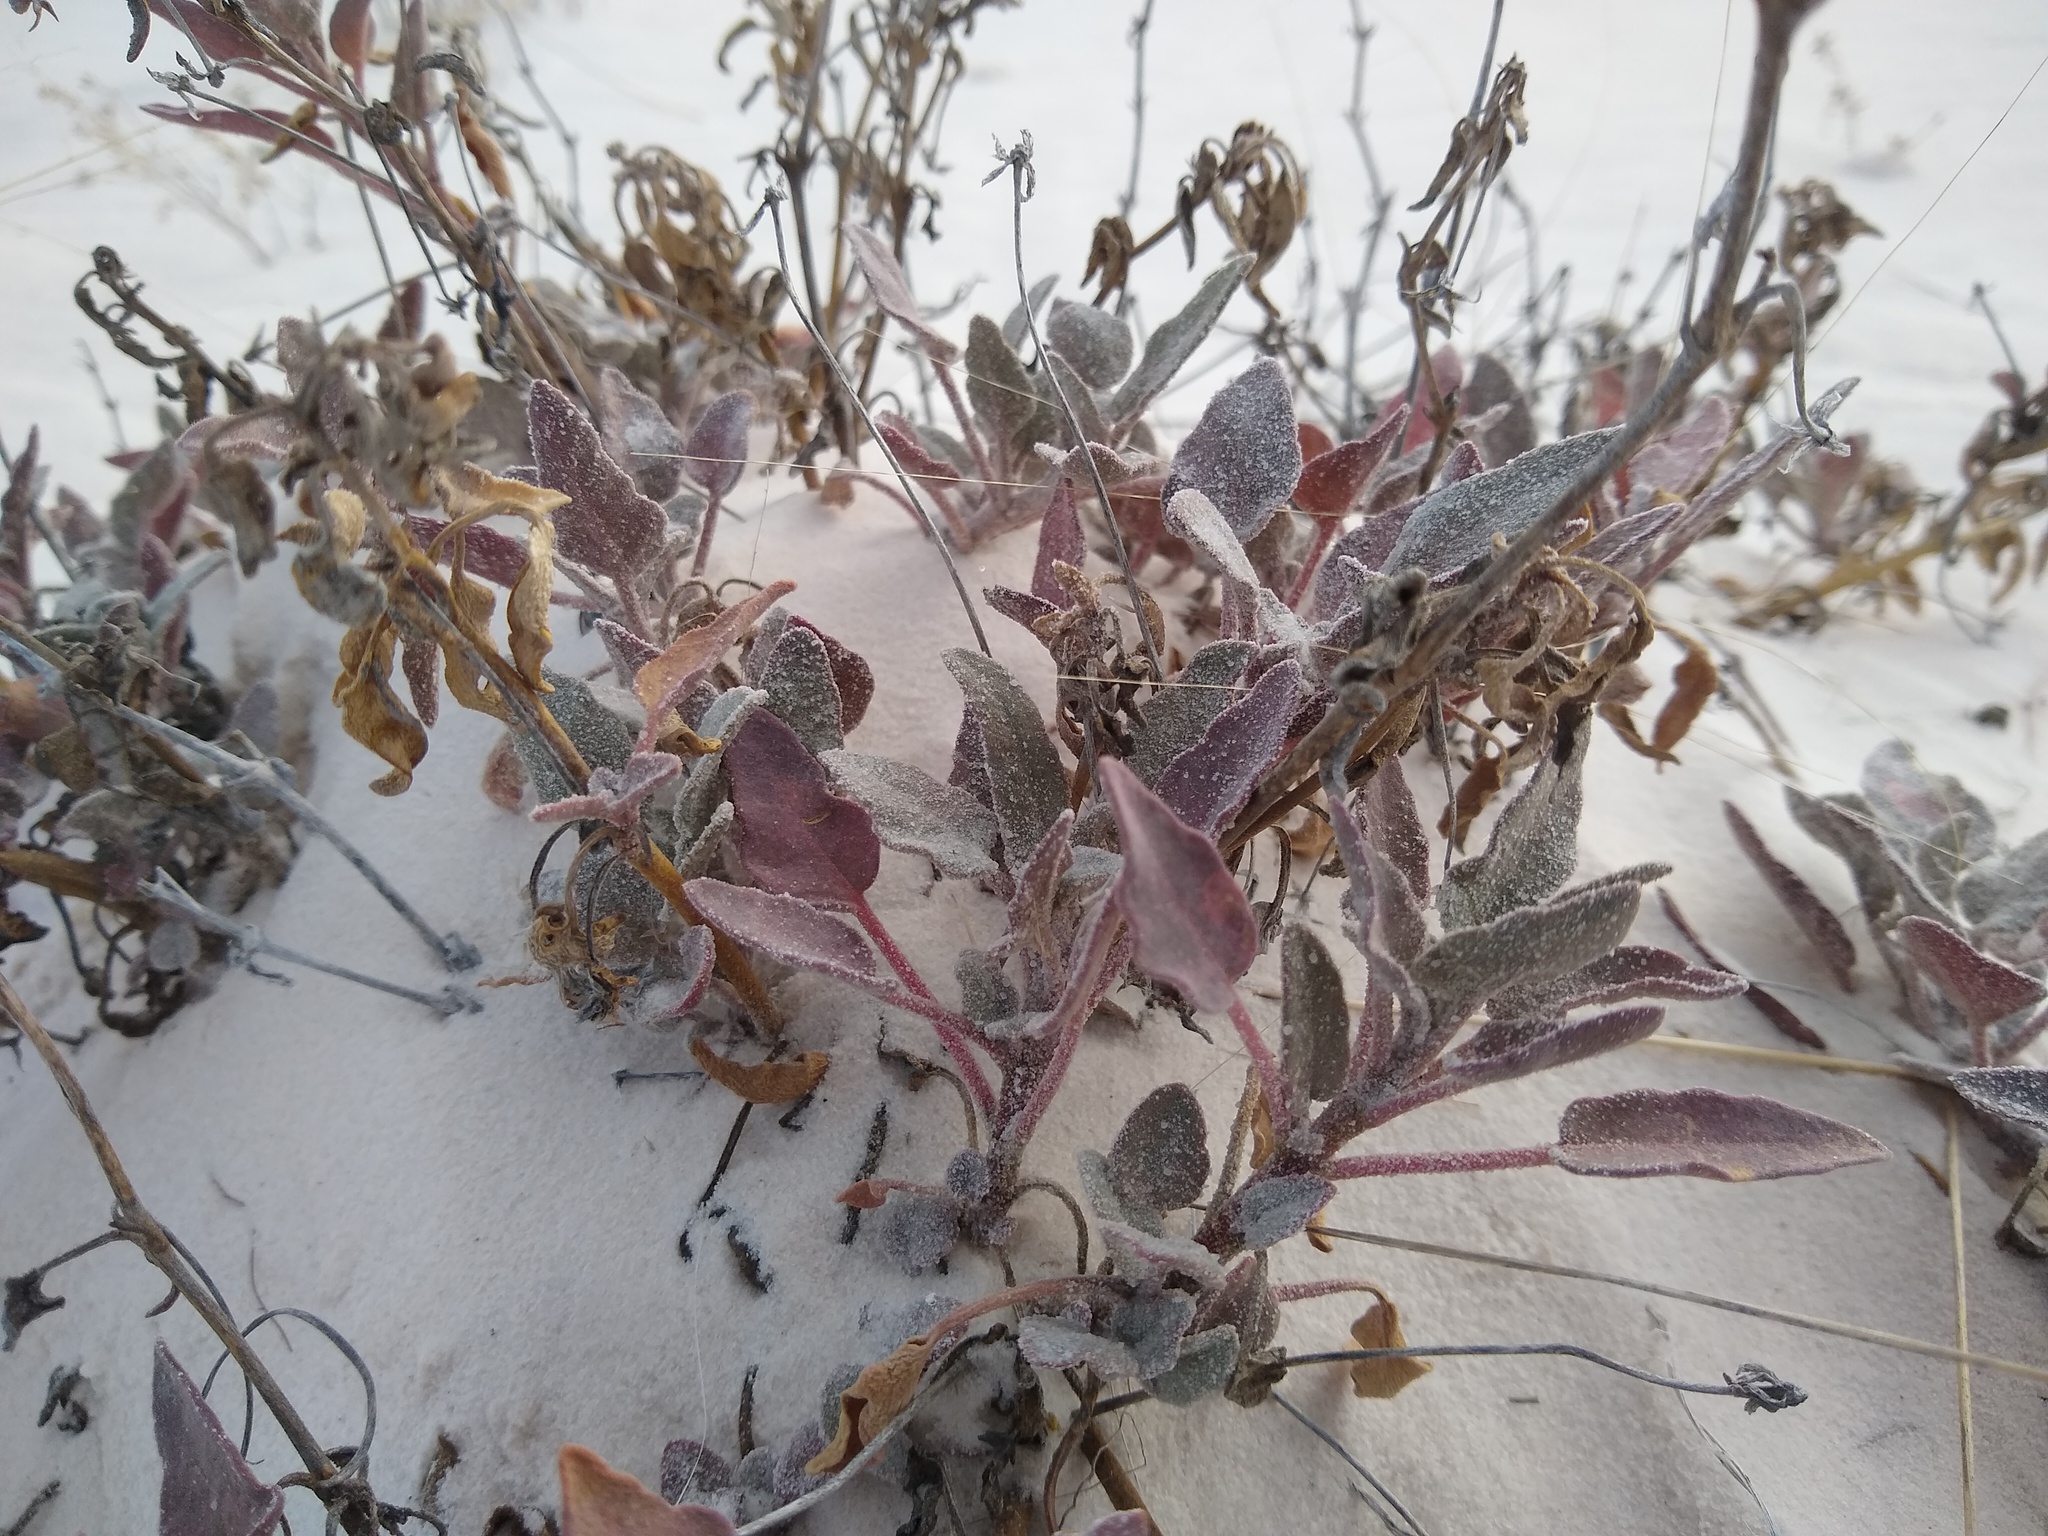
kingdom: Plantae
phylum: Tracheophyta
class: Magnoliopsida
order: Caryophyllales
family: Nyctaginaceae
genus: Abronia
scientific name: Abronia angustifolia
